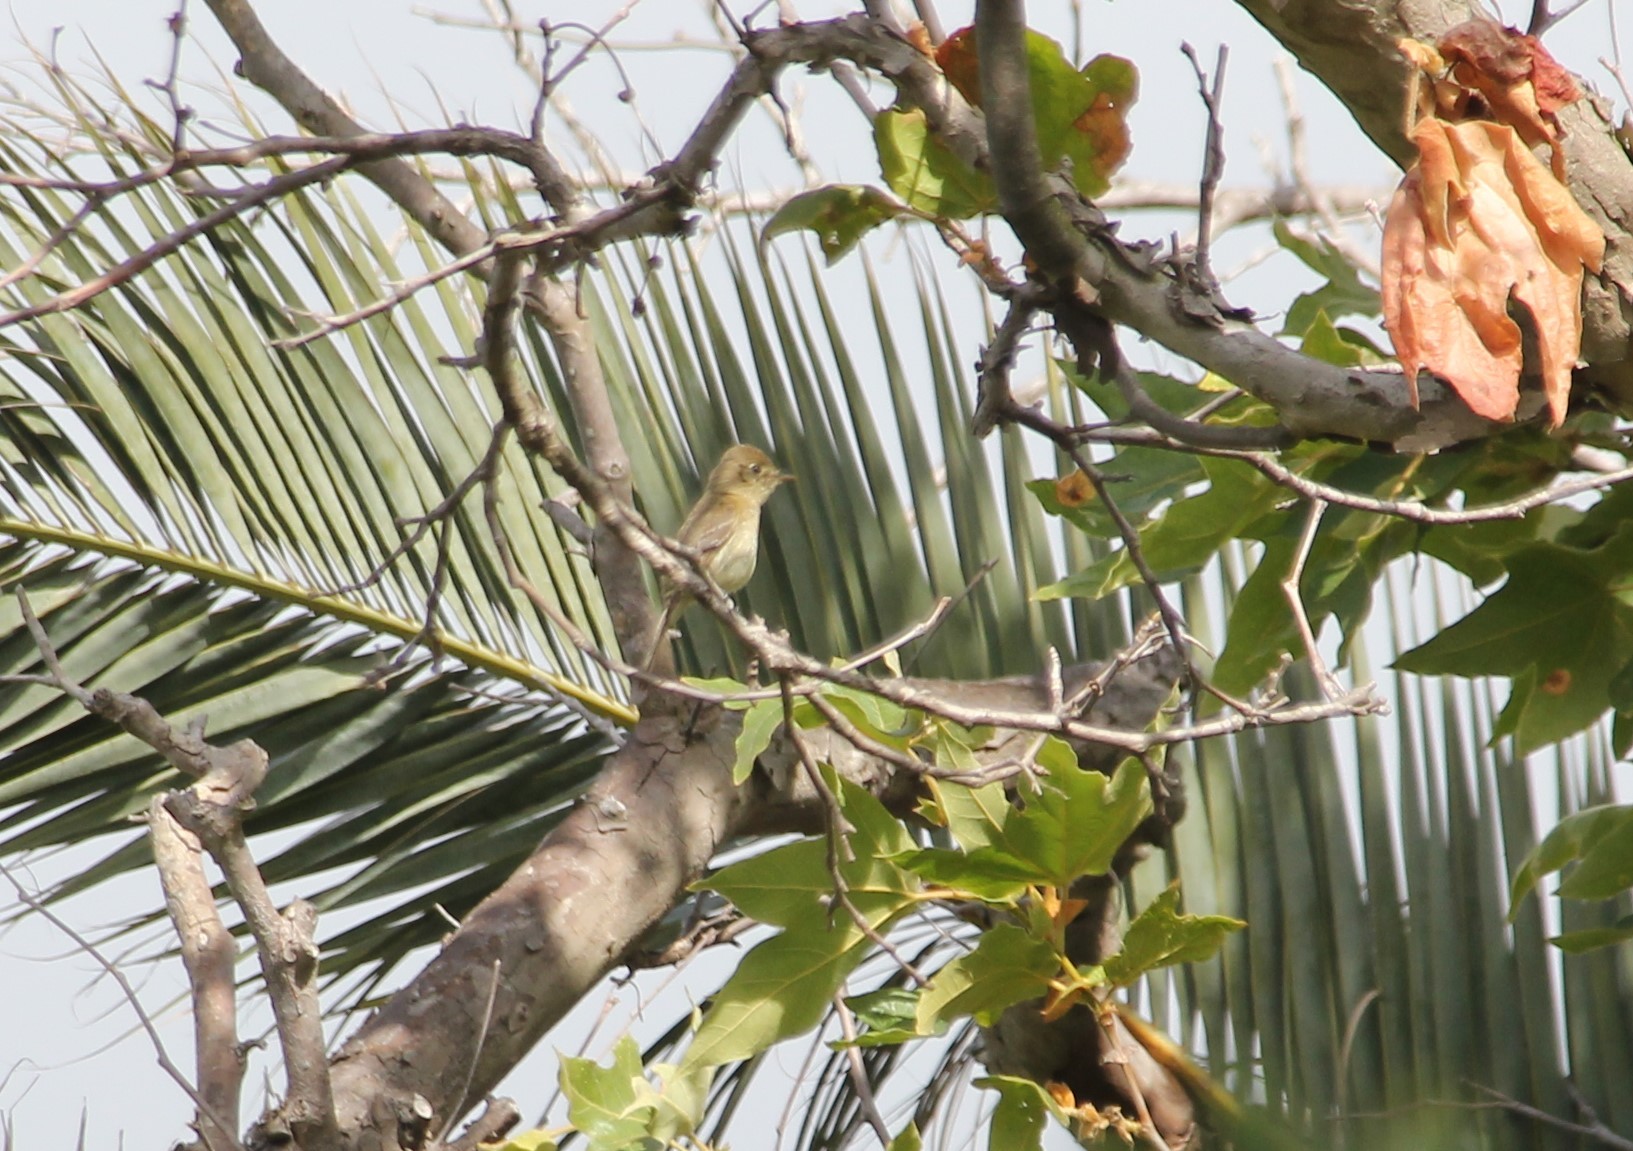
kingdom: Animalia
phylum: Chordata
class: Aves
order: Passeriformes
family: Tyrannidae
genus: Empidonax
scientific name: Empidonax difficilis
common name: Pacific-slope flycatcher
